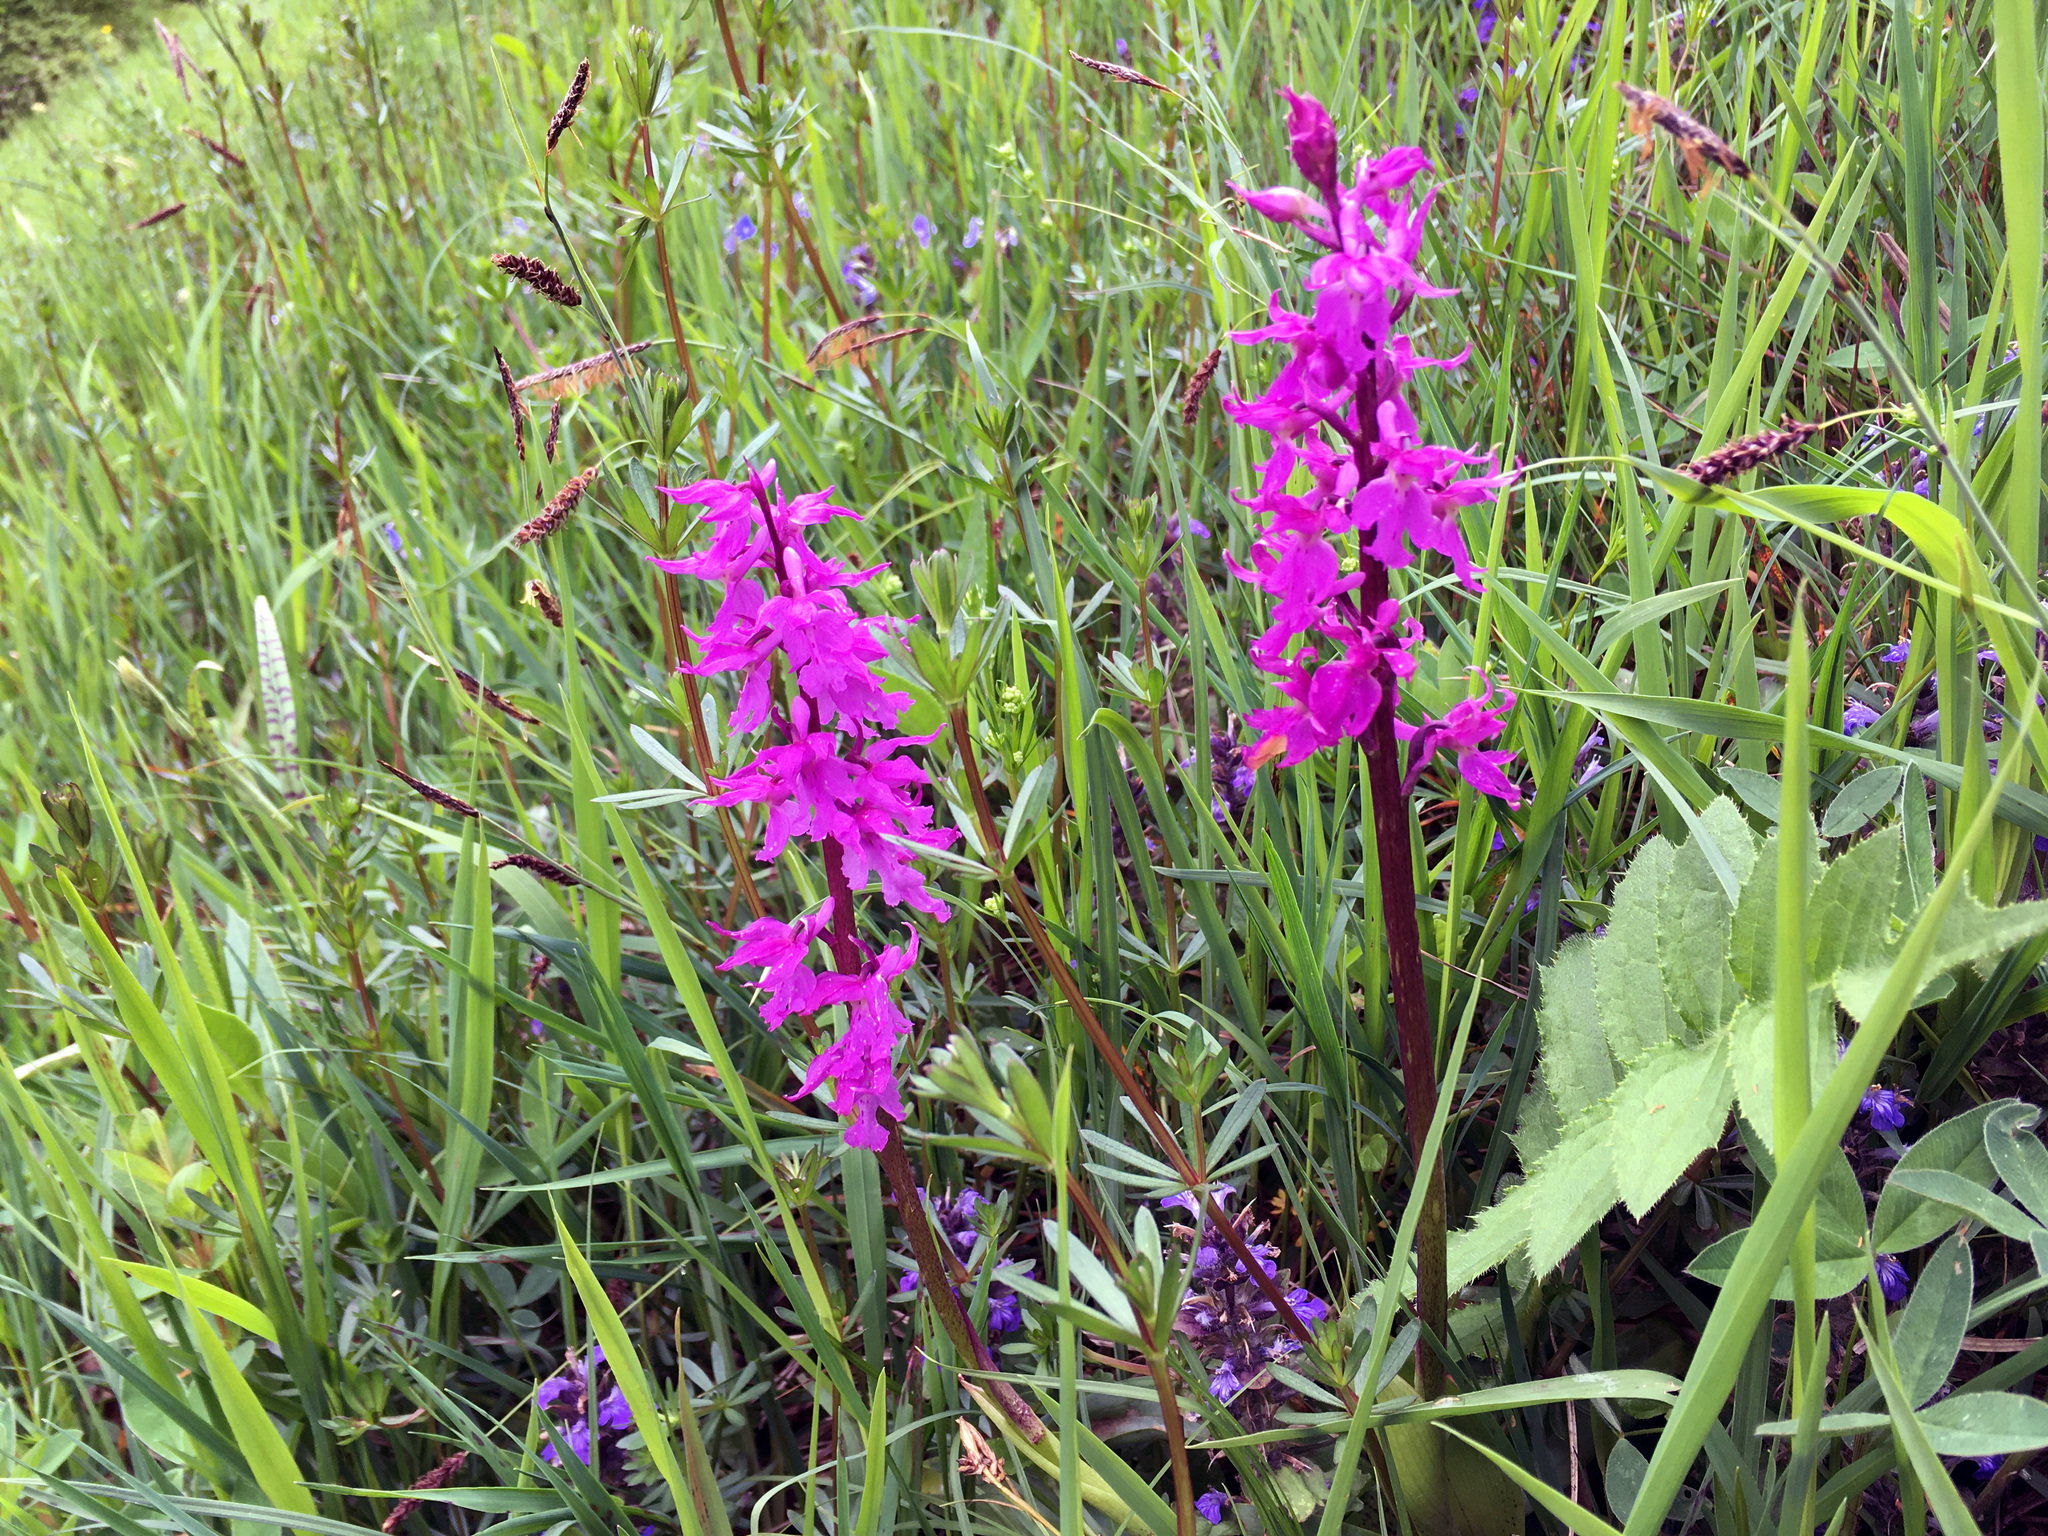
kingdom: Plantae
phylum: Tracheophyta
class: Liliopsida
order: Asparagales
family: Orchidaceae
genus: Orchis
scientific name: Orchis mascula
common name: Early-purple orchid
